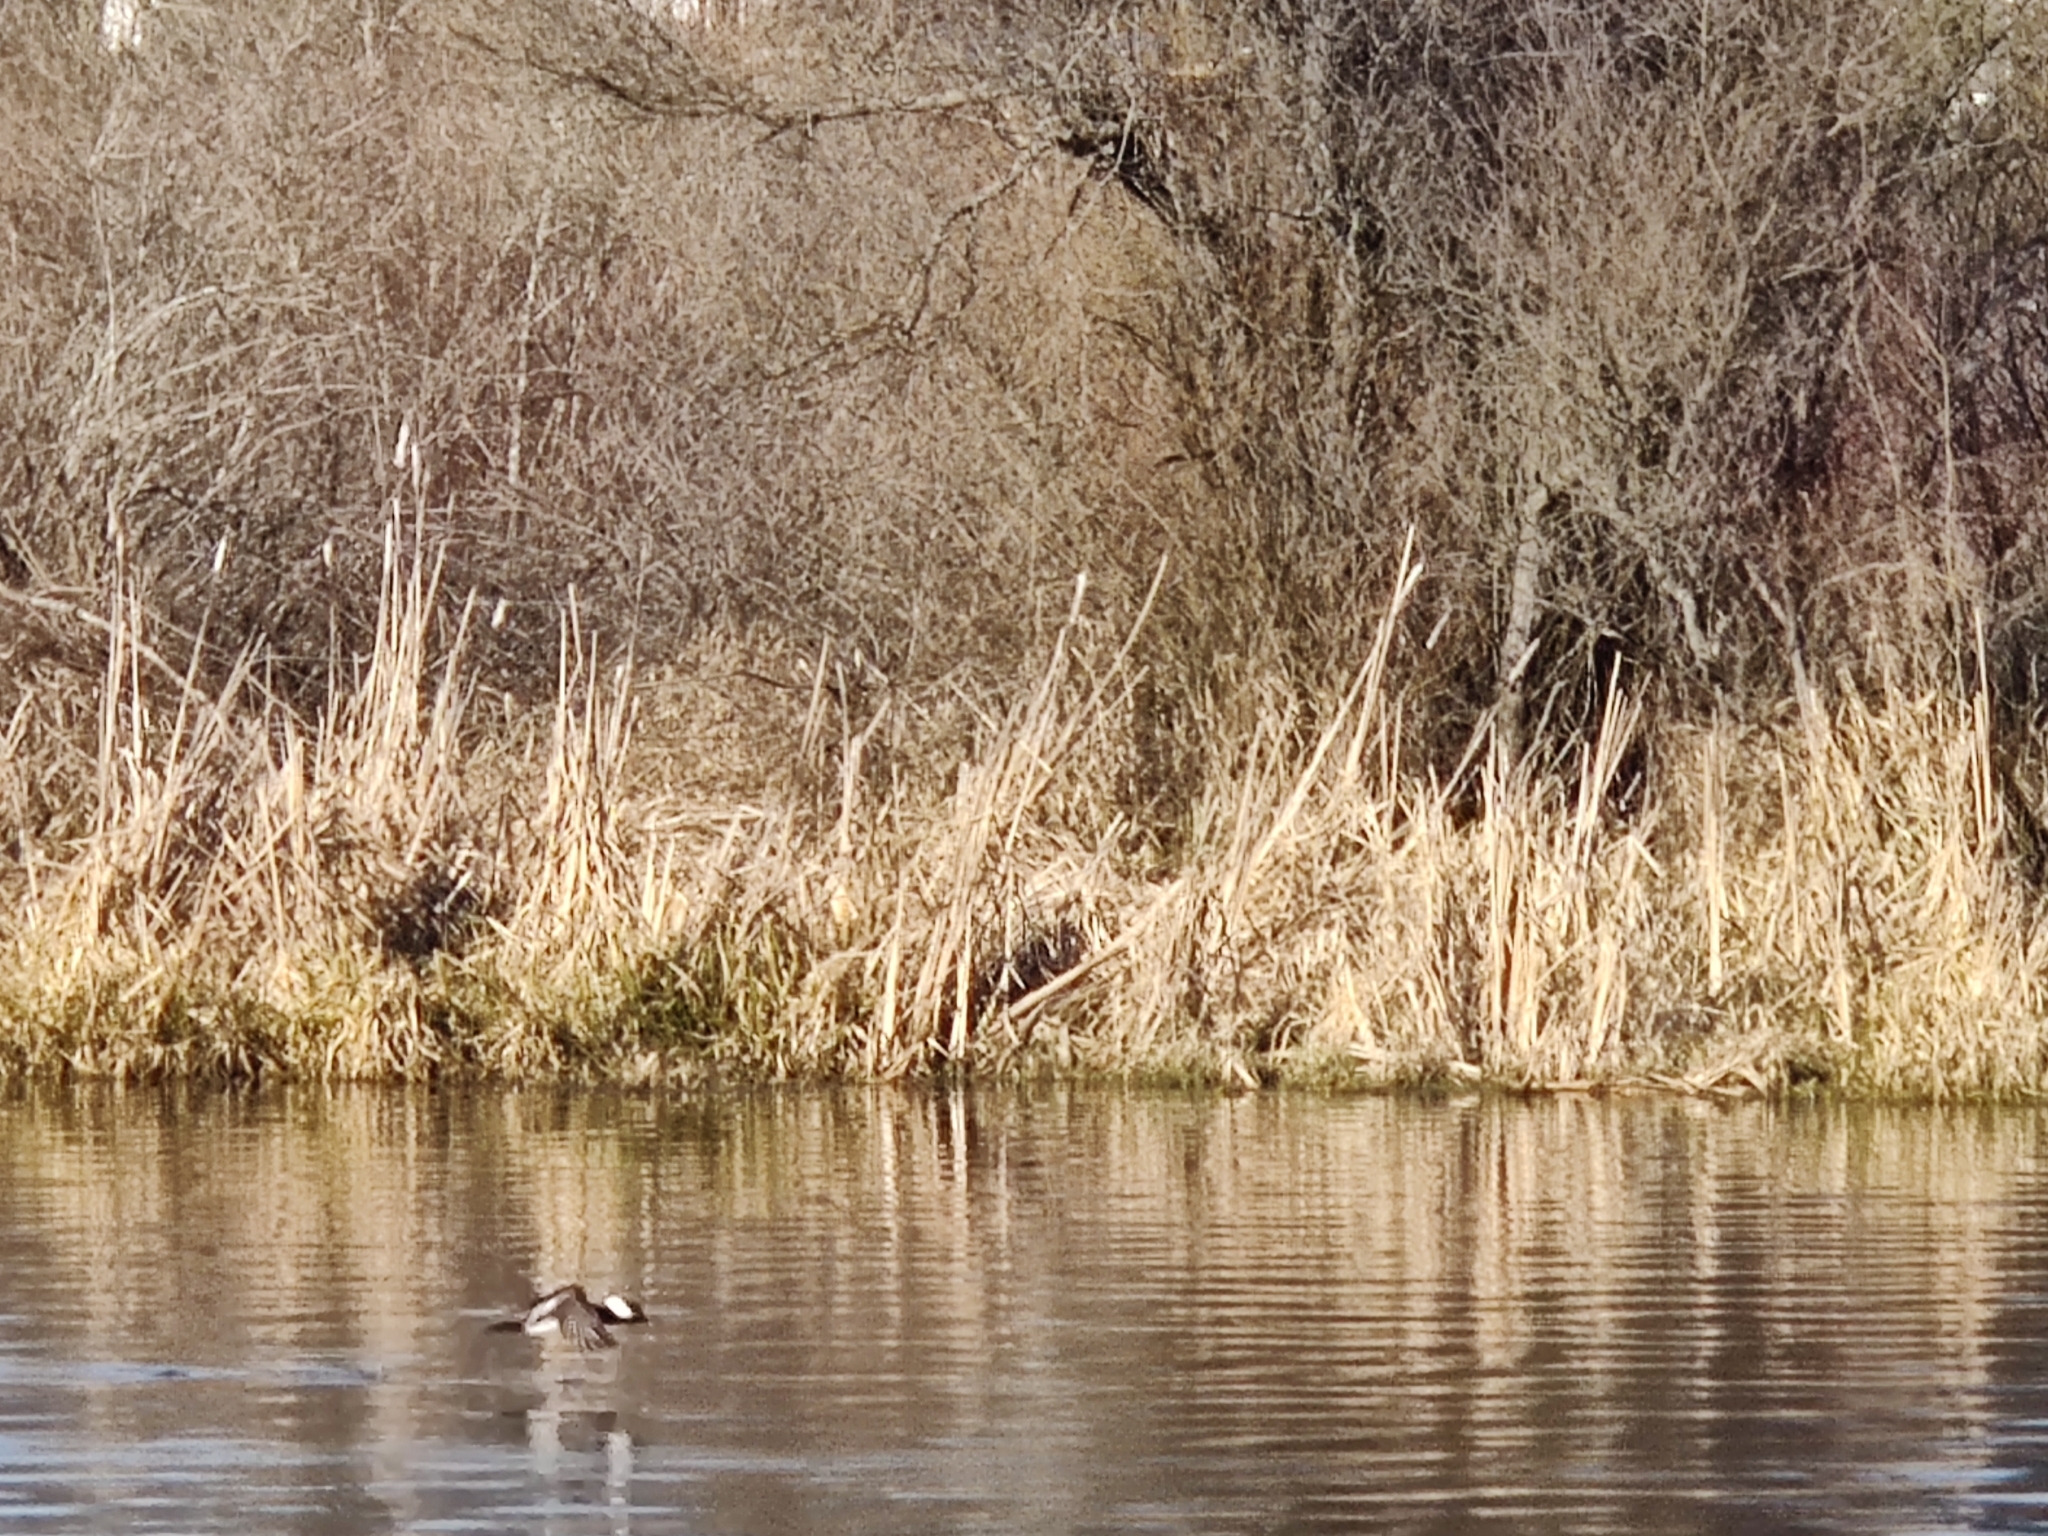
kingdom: Animalia
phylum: Chordata
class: Aves
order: Anseriformes
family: Anatidae
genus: Lophodytes
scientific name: Lophodytes cucullatus
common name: Hooded merganser
